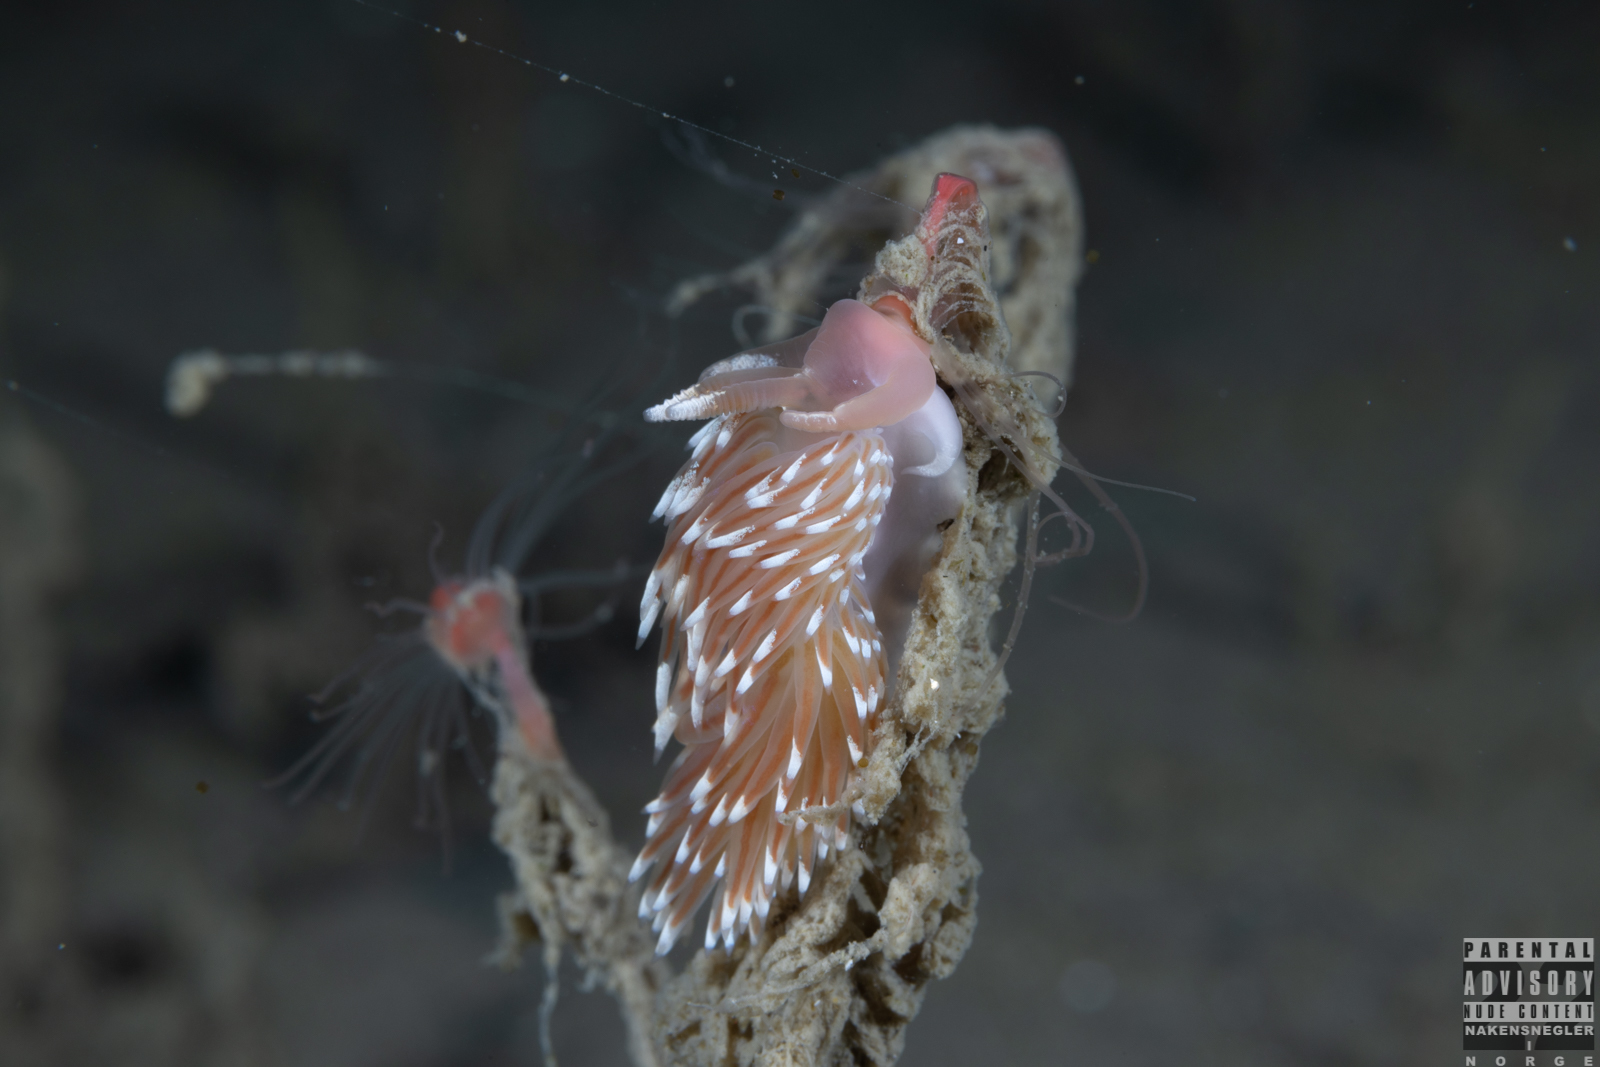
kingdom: Animalia
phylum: Mollusca
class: Gastropoda
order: Nudibranchia
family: Facelinidae
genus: Facelina
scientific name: Facelina bostoniensis
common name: Boston facelina
